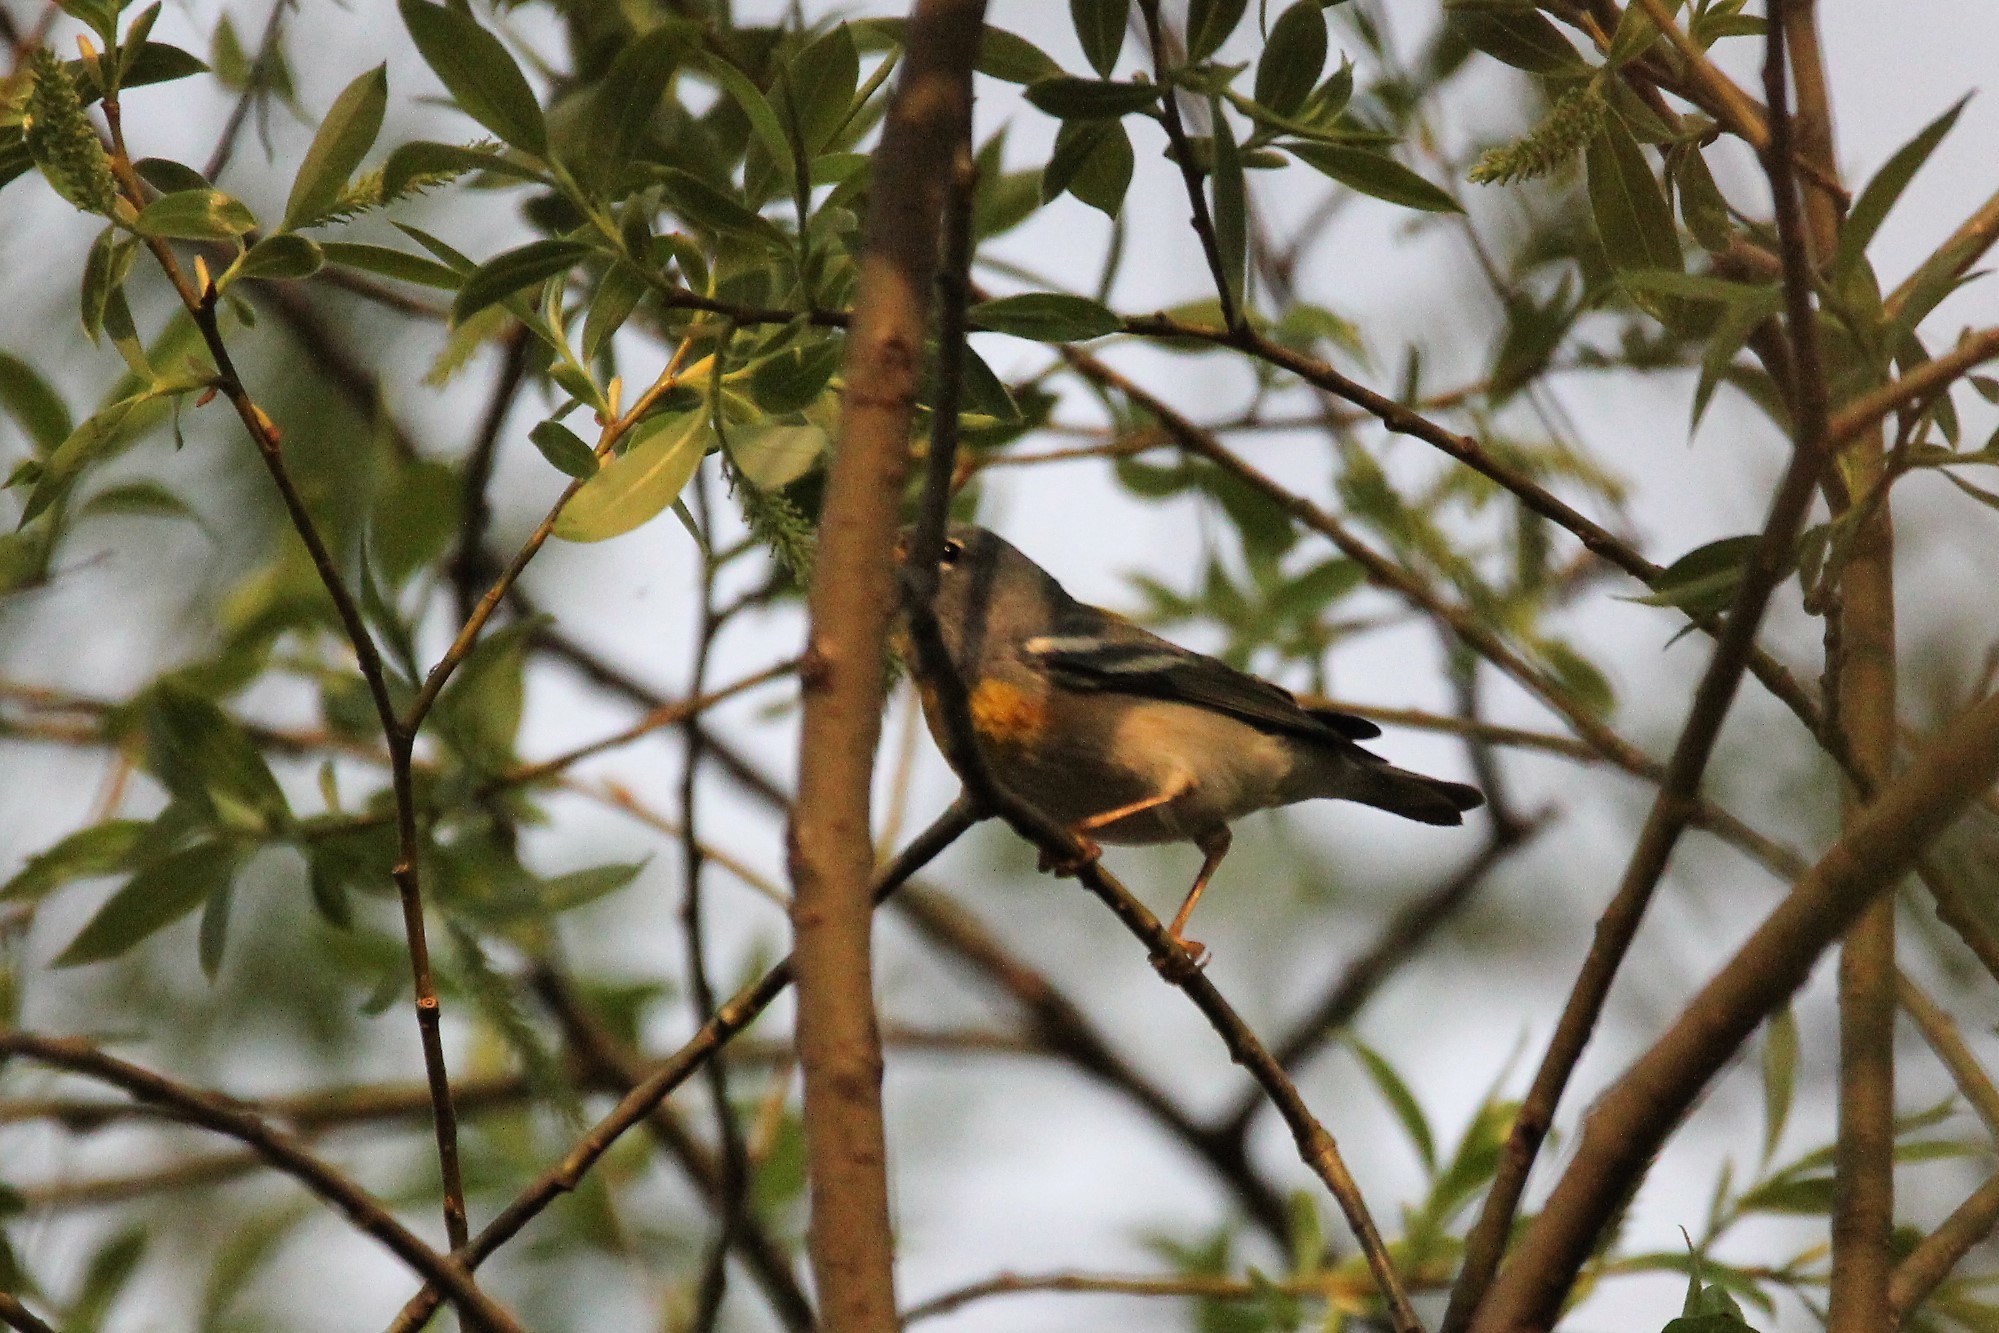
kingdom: Animalia
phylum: Chordata
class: Aves
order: Passeriformes
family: Parulidae
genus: Setophaga
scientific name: Setophaga americana
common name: Northern parula
